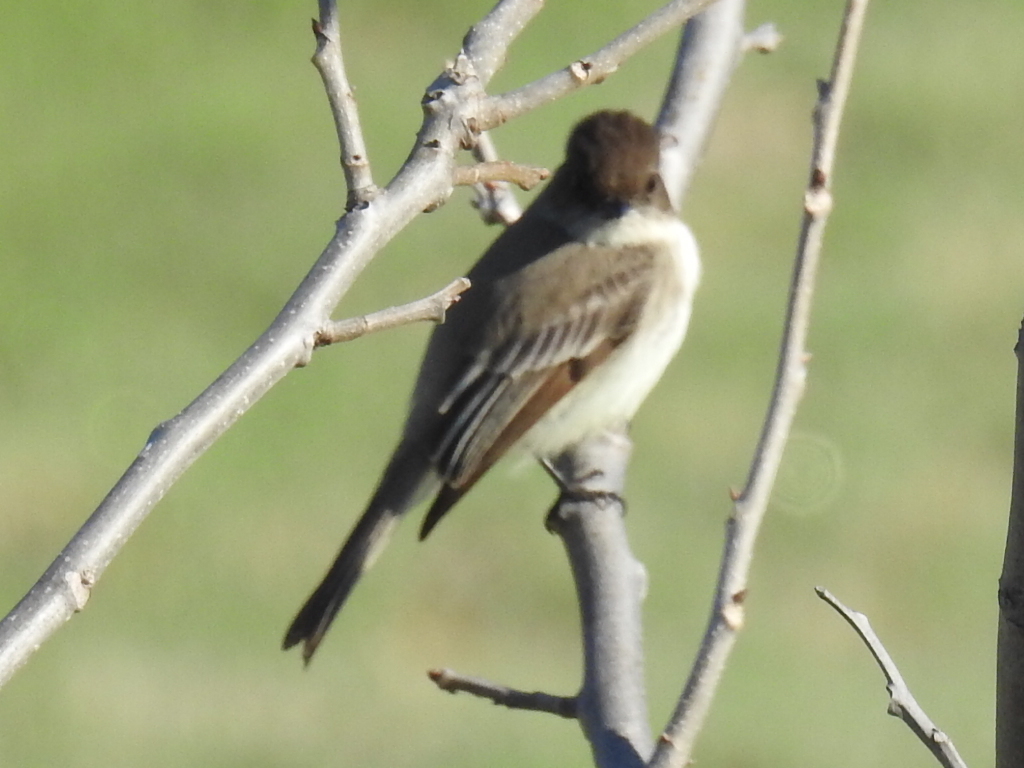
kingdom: Animalia
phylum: Chordata
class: Aves
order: Passeriformes
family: Tyrannidae
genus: Sayornis
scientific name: Sayornis phoebe
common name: Eastern phoebe
